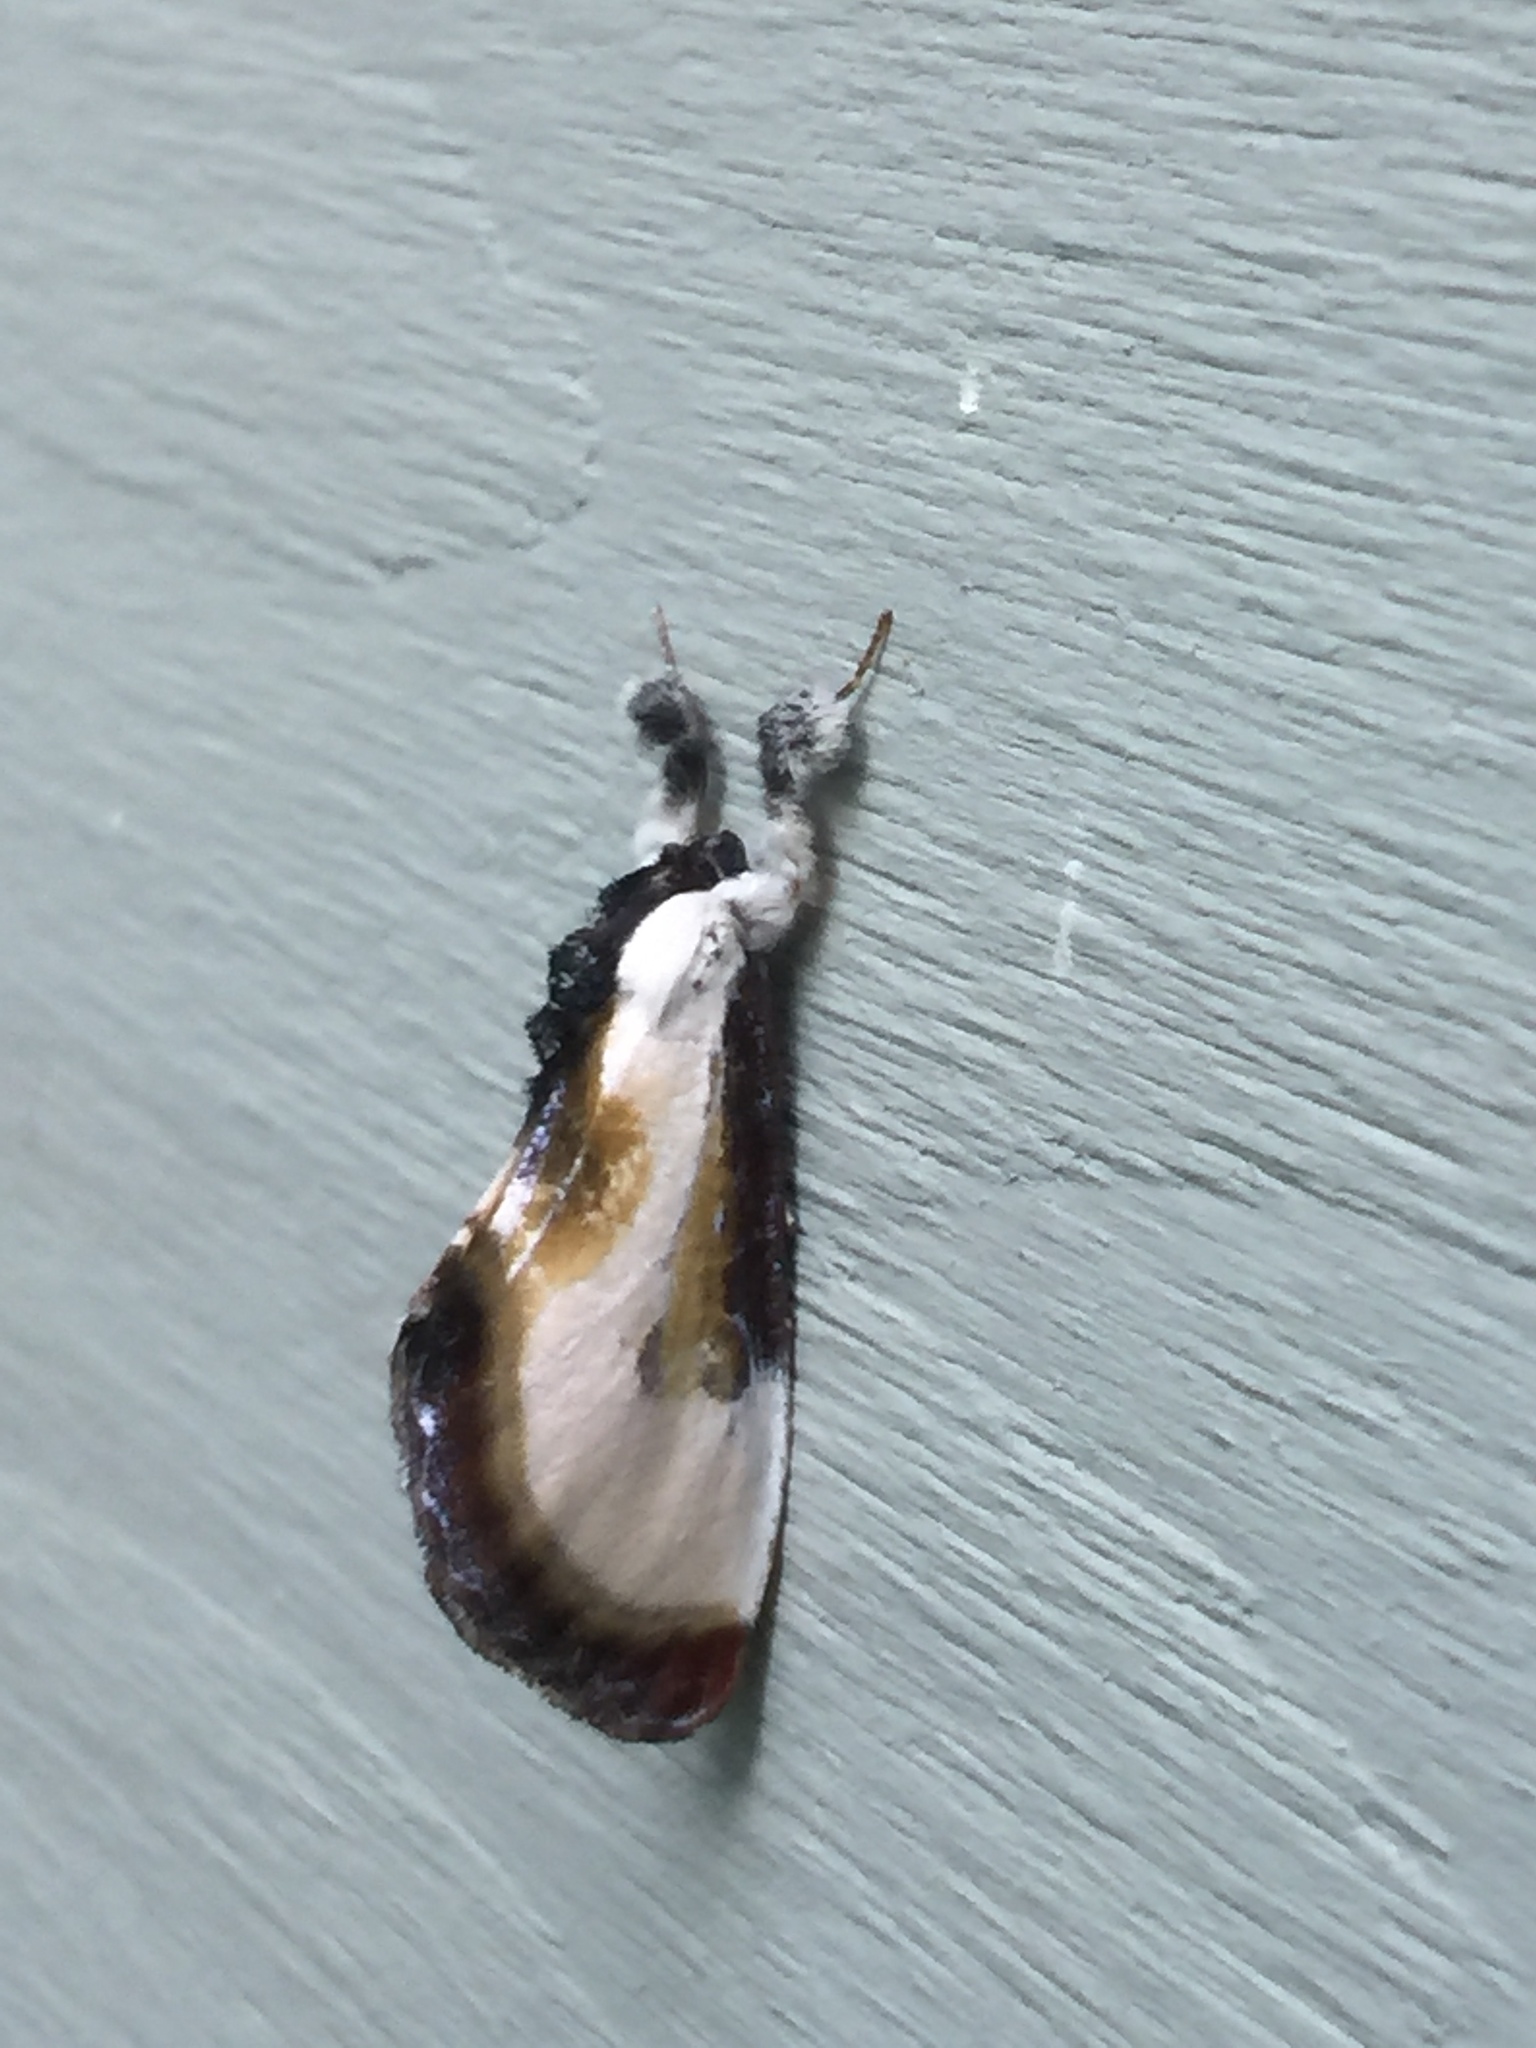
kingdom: Animalia
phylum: Arthropoda
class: Insecta
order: Lepidoptera
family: Noctuidae
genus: Eudryas
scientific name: Eudryas grata
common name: Beautiful wood-nymph
